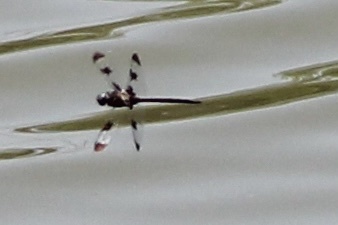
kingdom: Animalia
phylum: Arthropoda
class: Insecta
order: Odonata
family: Corduliidae
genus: Epitheca
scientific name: Epitheca princeps
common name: Prince baskettail
